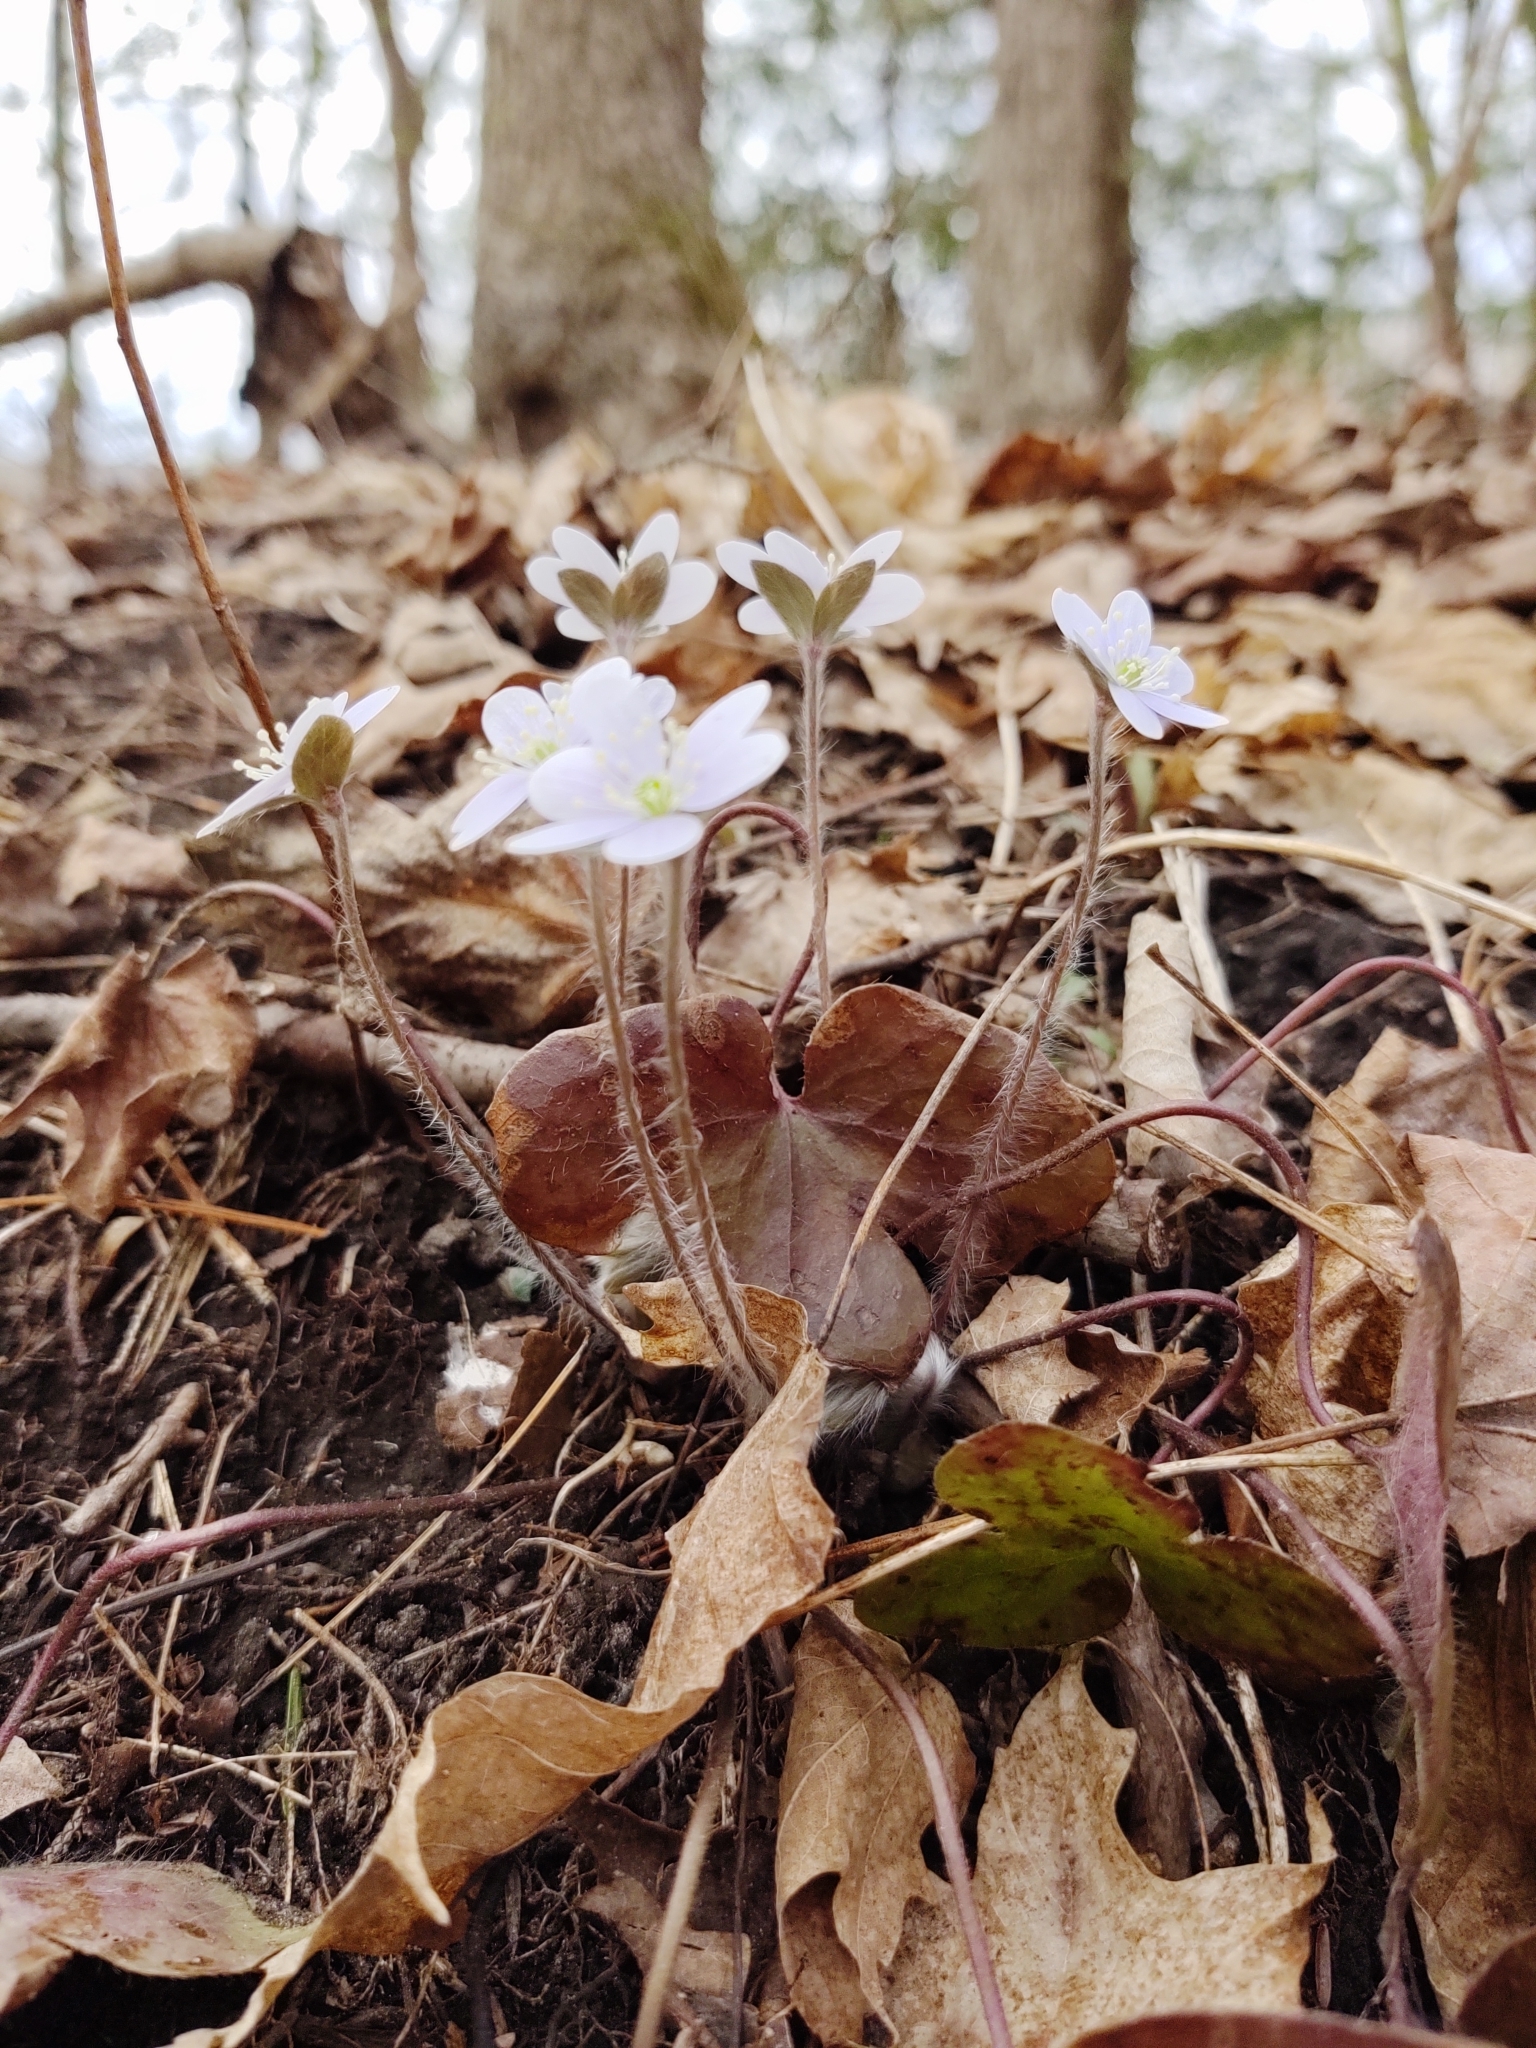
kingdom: Plantae
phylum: Tracheophyta
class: Magnoliopsida
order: Ranunculales
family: Ranunculaceae
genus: Hepatica
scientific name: Hepatica americana
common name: American hepatica
